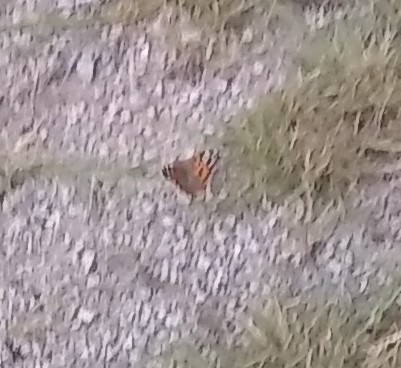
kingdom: Animalia
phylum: Arthropoda
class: Insecta
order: Lepidoptera
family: Nymphalidae
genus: Vanessa
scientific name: Vanessa
